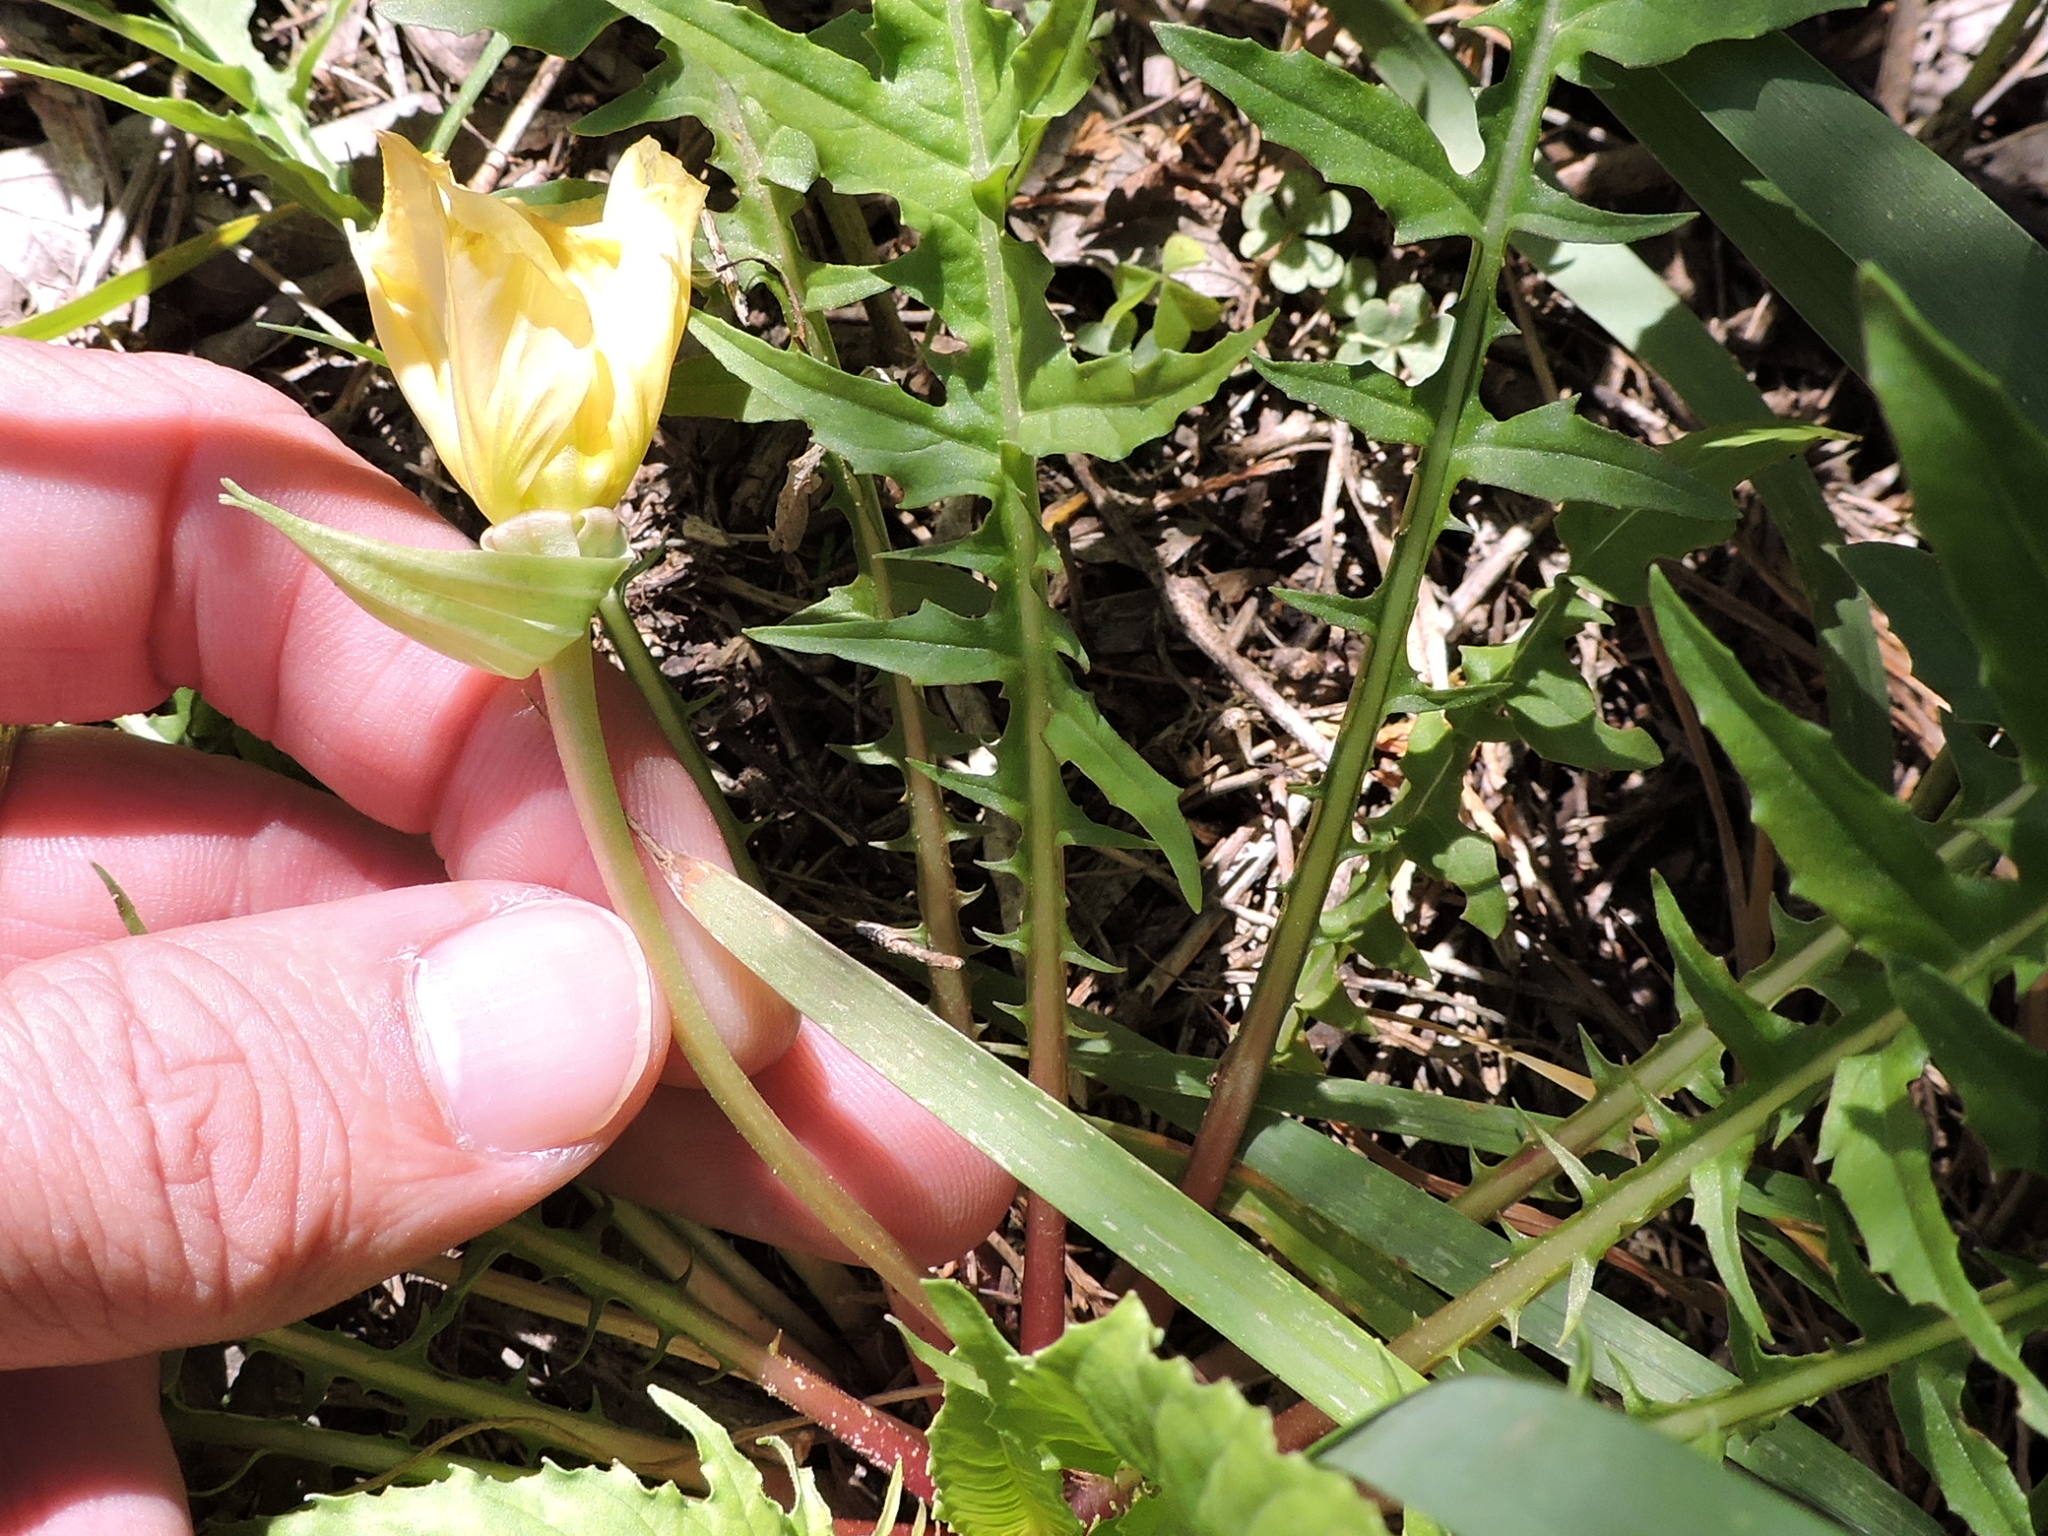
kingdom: Plantae
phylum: Tracheophyta
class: Magnoliopsida
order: Myrtales
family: Onagraceae
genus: Oenothera
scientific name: Oenothera triloba
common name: Sessile evening-primrose
